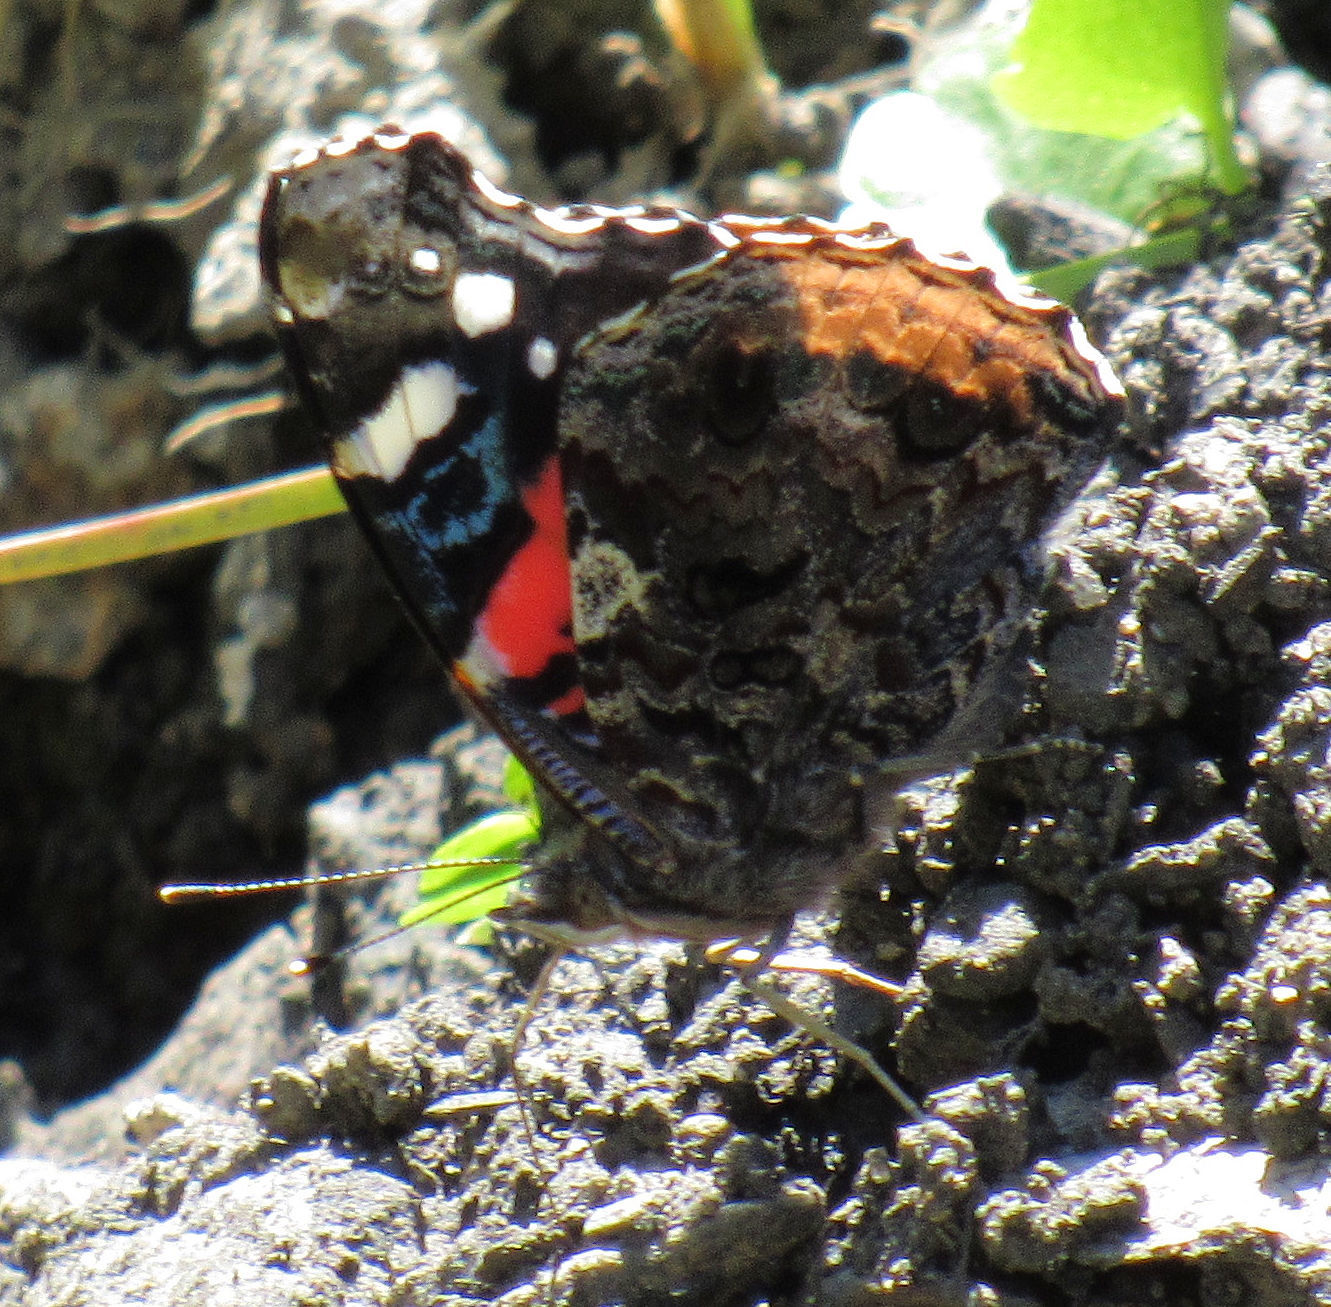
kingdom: Animalia
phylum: Arthropoda
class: Insecta
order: Lepidoptera
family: Nymphalidae
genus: Vanessa
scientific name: Vanessa atalanta
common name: Red admiral
